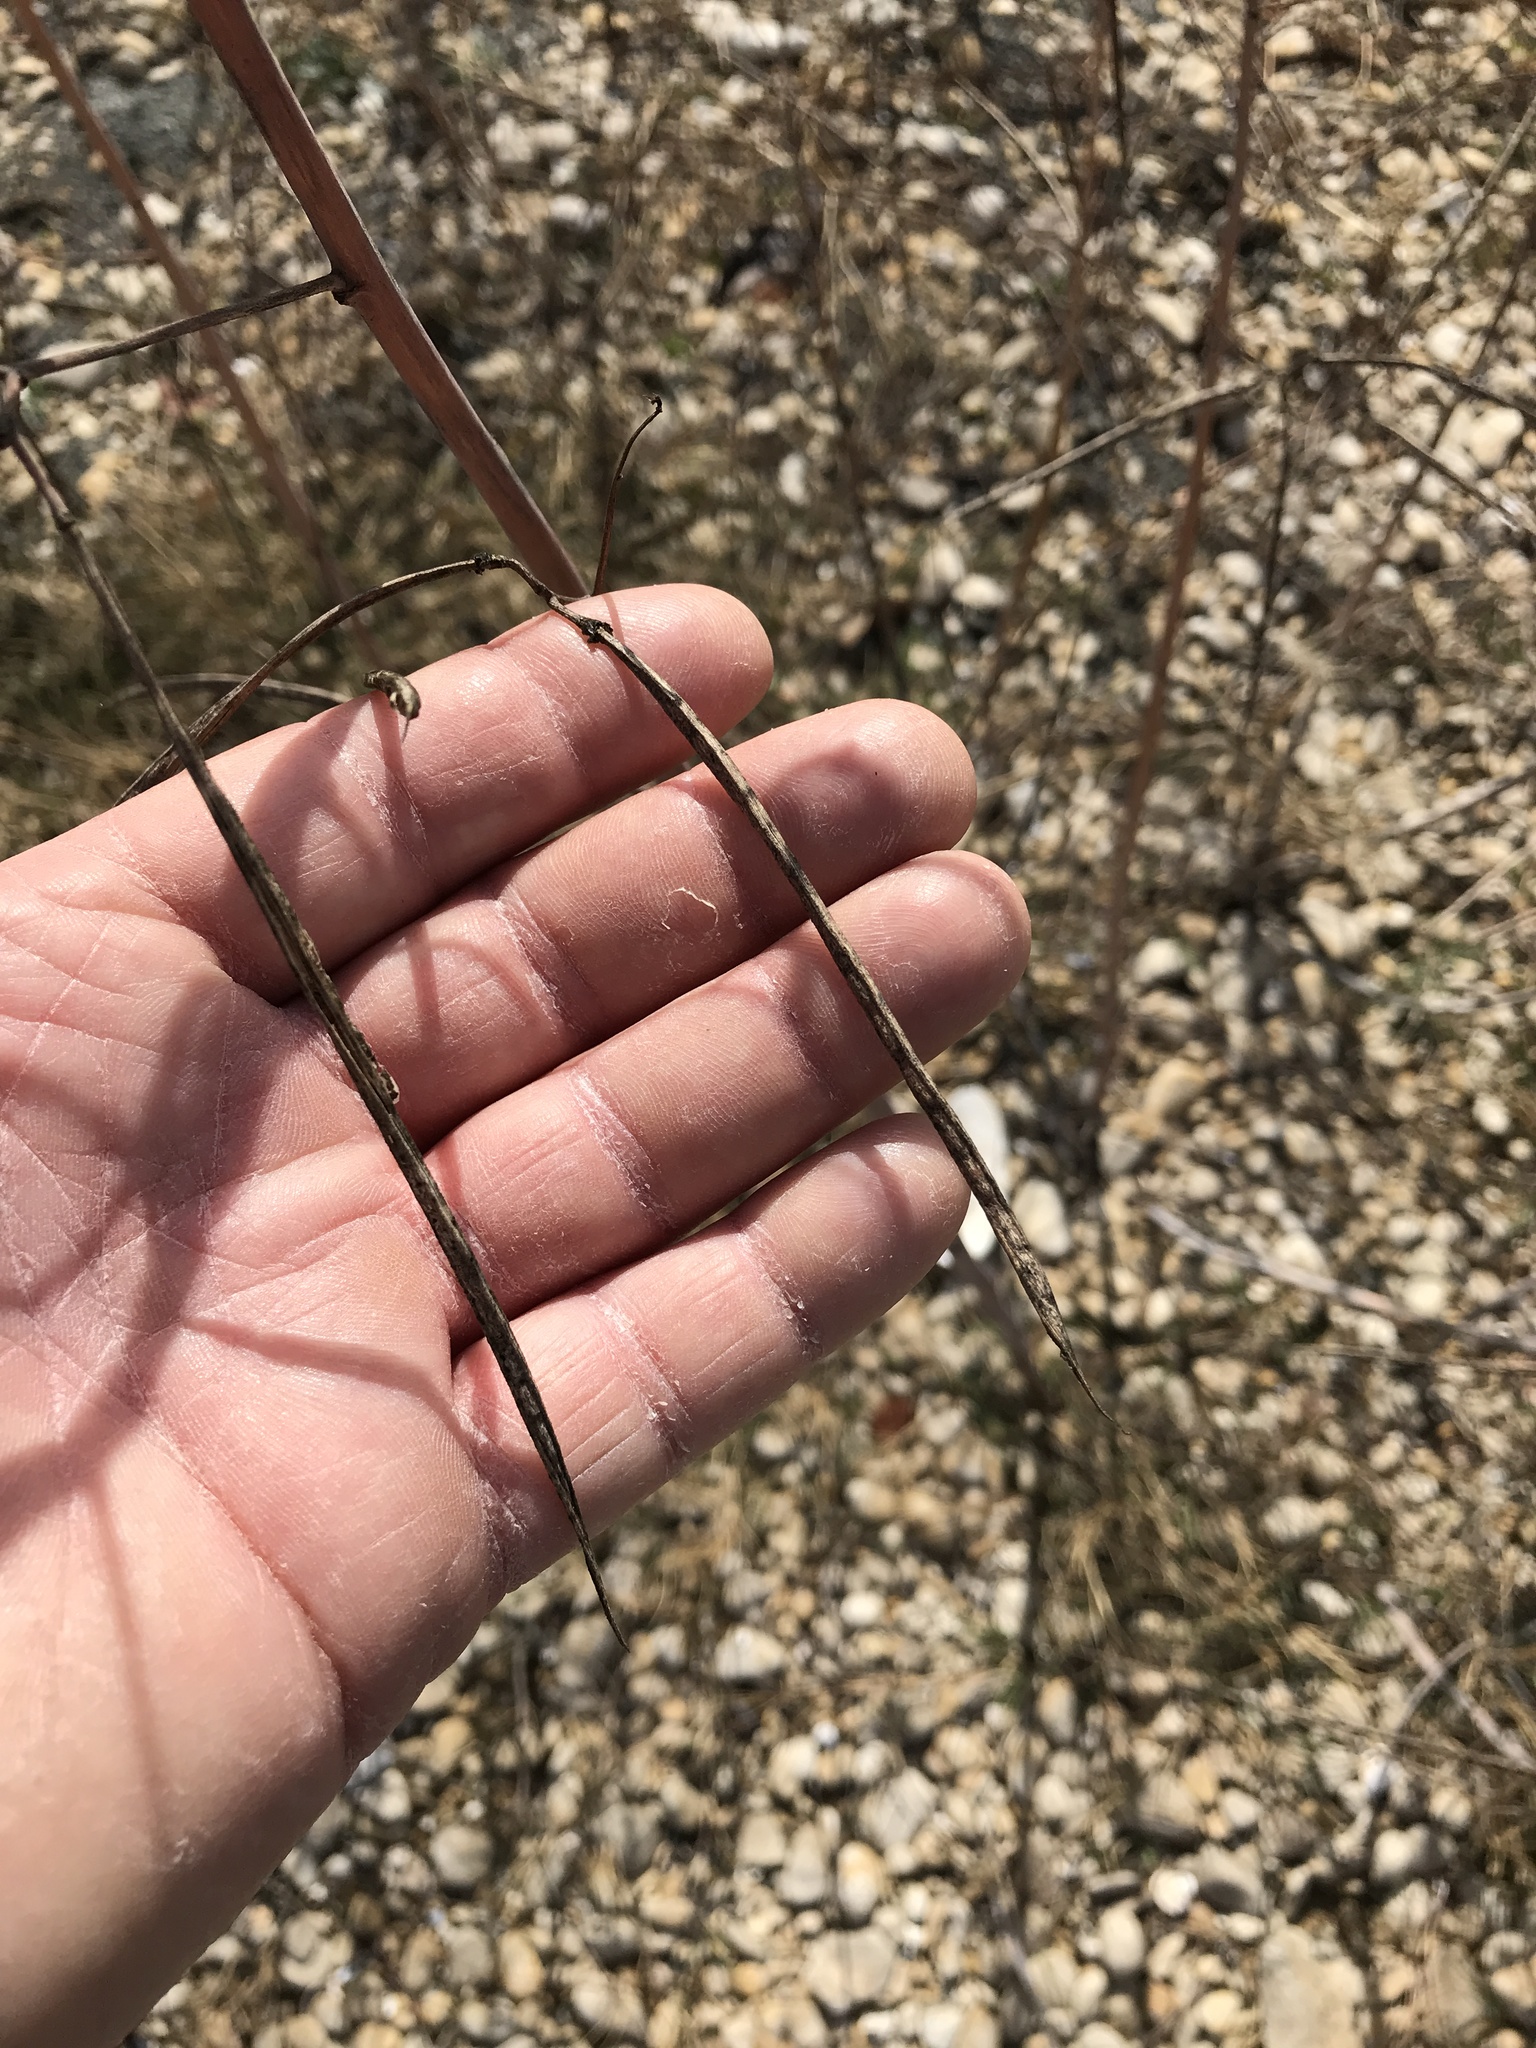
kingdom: Plantae
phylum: Tracheophyta
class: Magnoliopsida
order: Fabales
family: Fabaceae
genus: Sesbania
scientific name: Sesbania herbacea
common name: Bigpod sesbania
